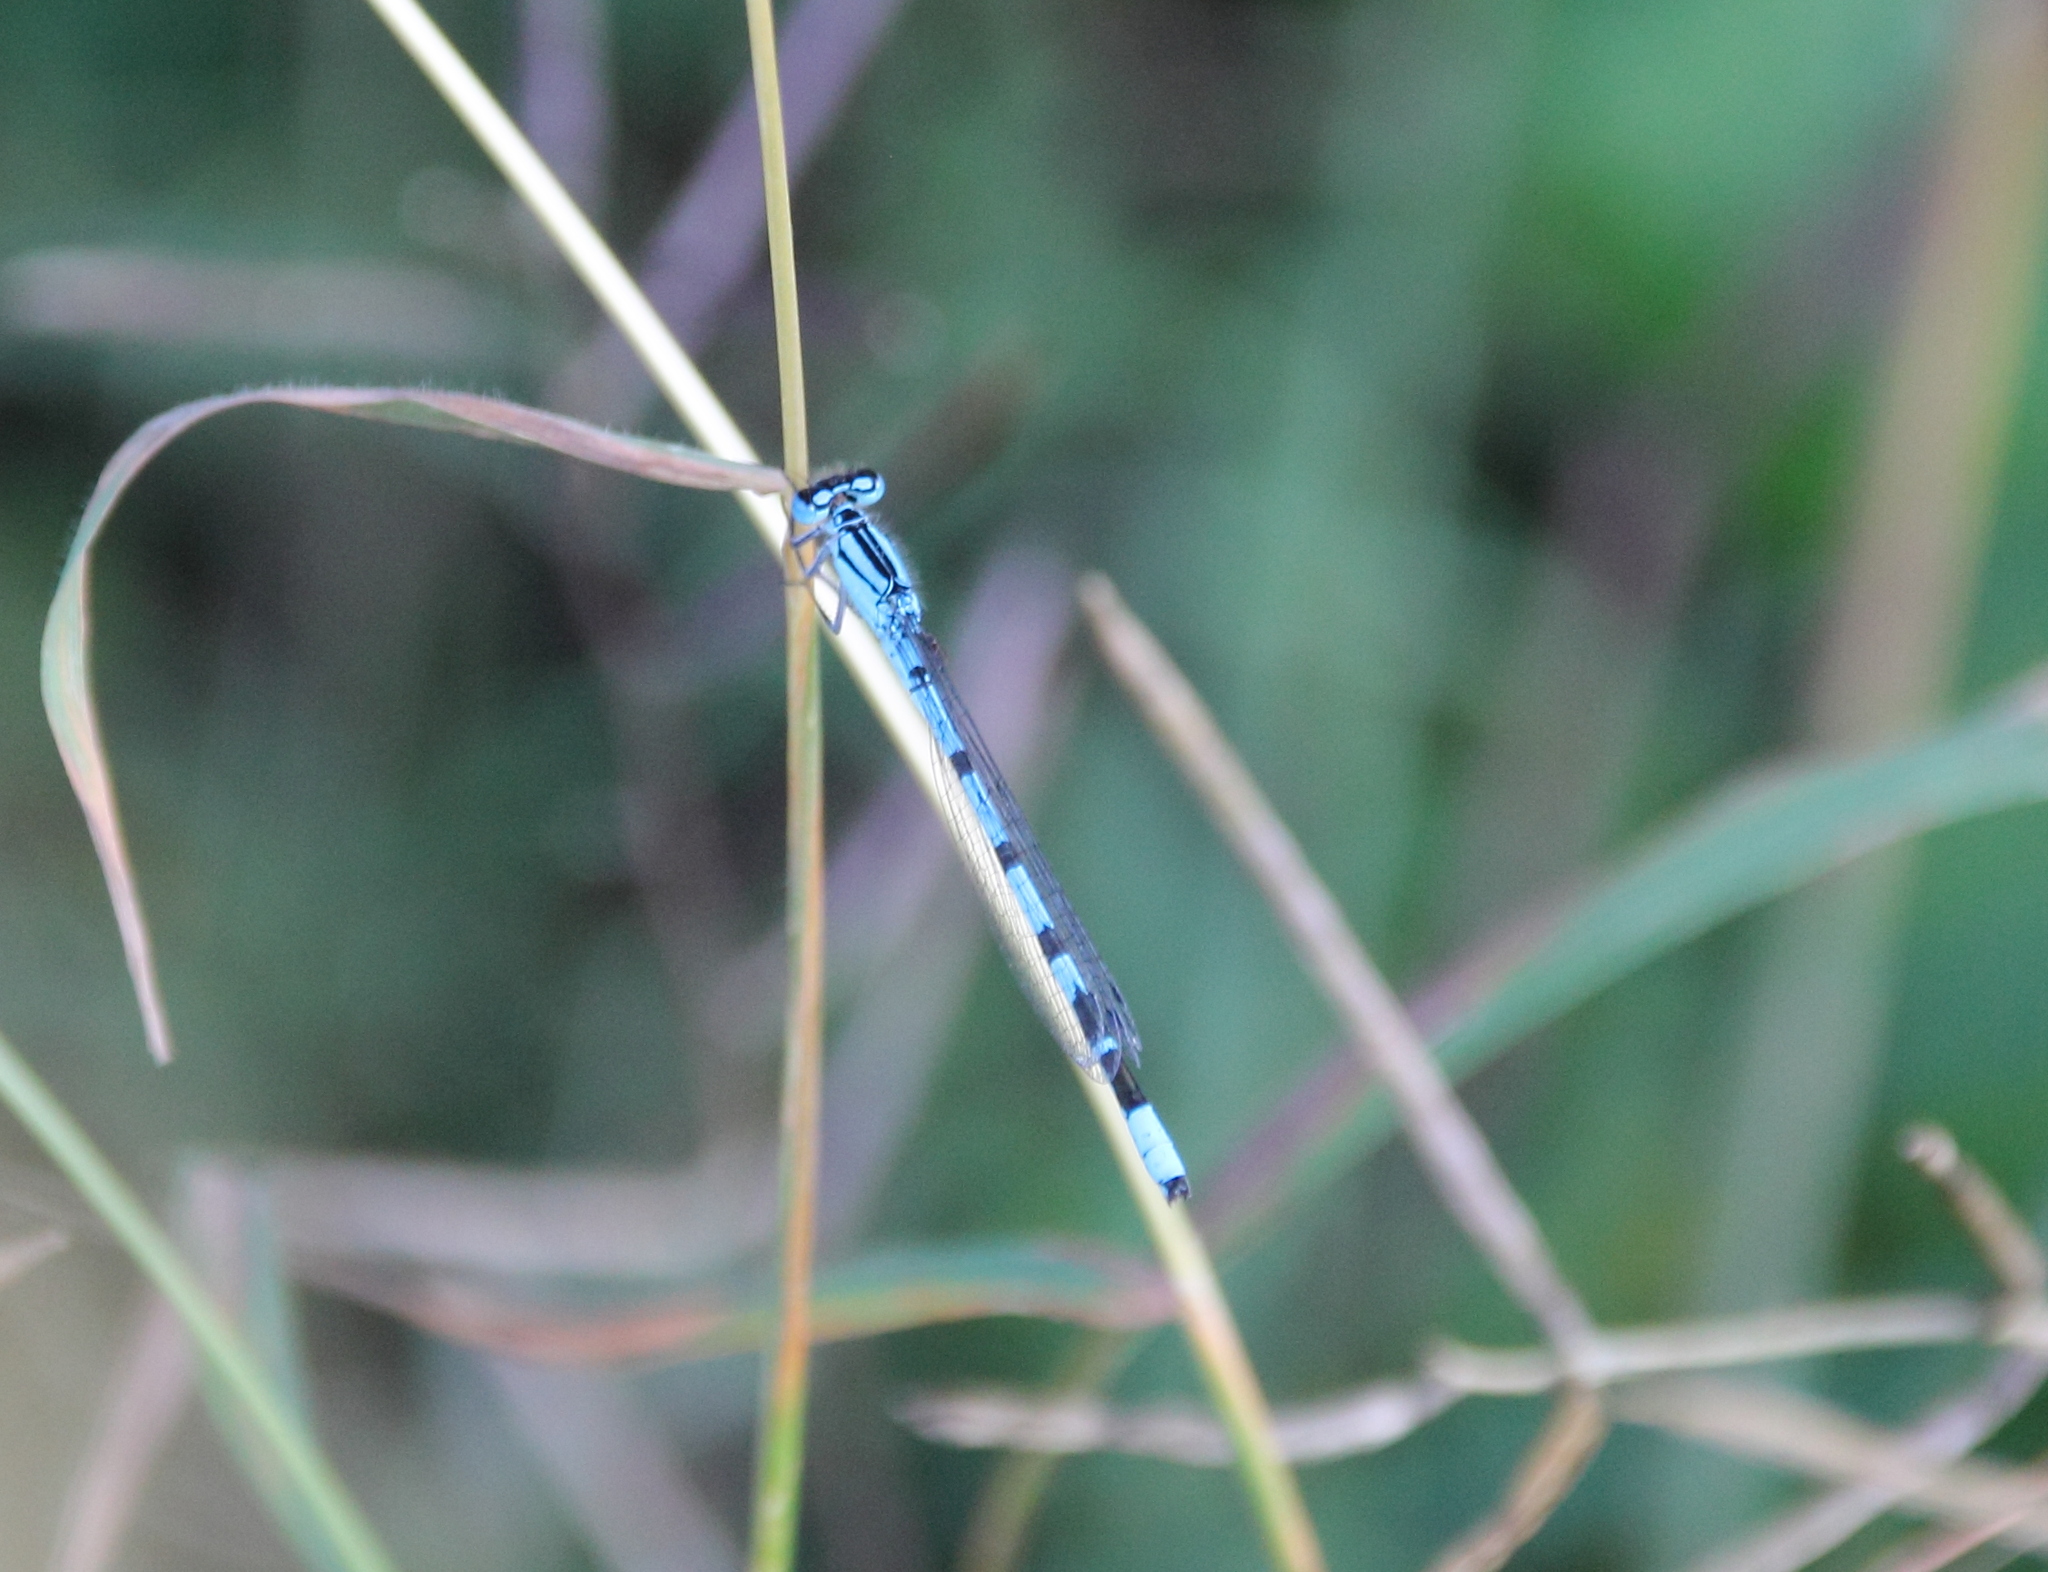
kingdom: Animalia
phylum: Arthropoda
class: Insecta
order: Odonata
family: Coenagrionidae
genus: Enallagma
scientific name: Enallagma cyathigerum
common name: Common blue damselfly
